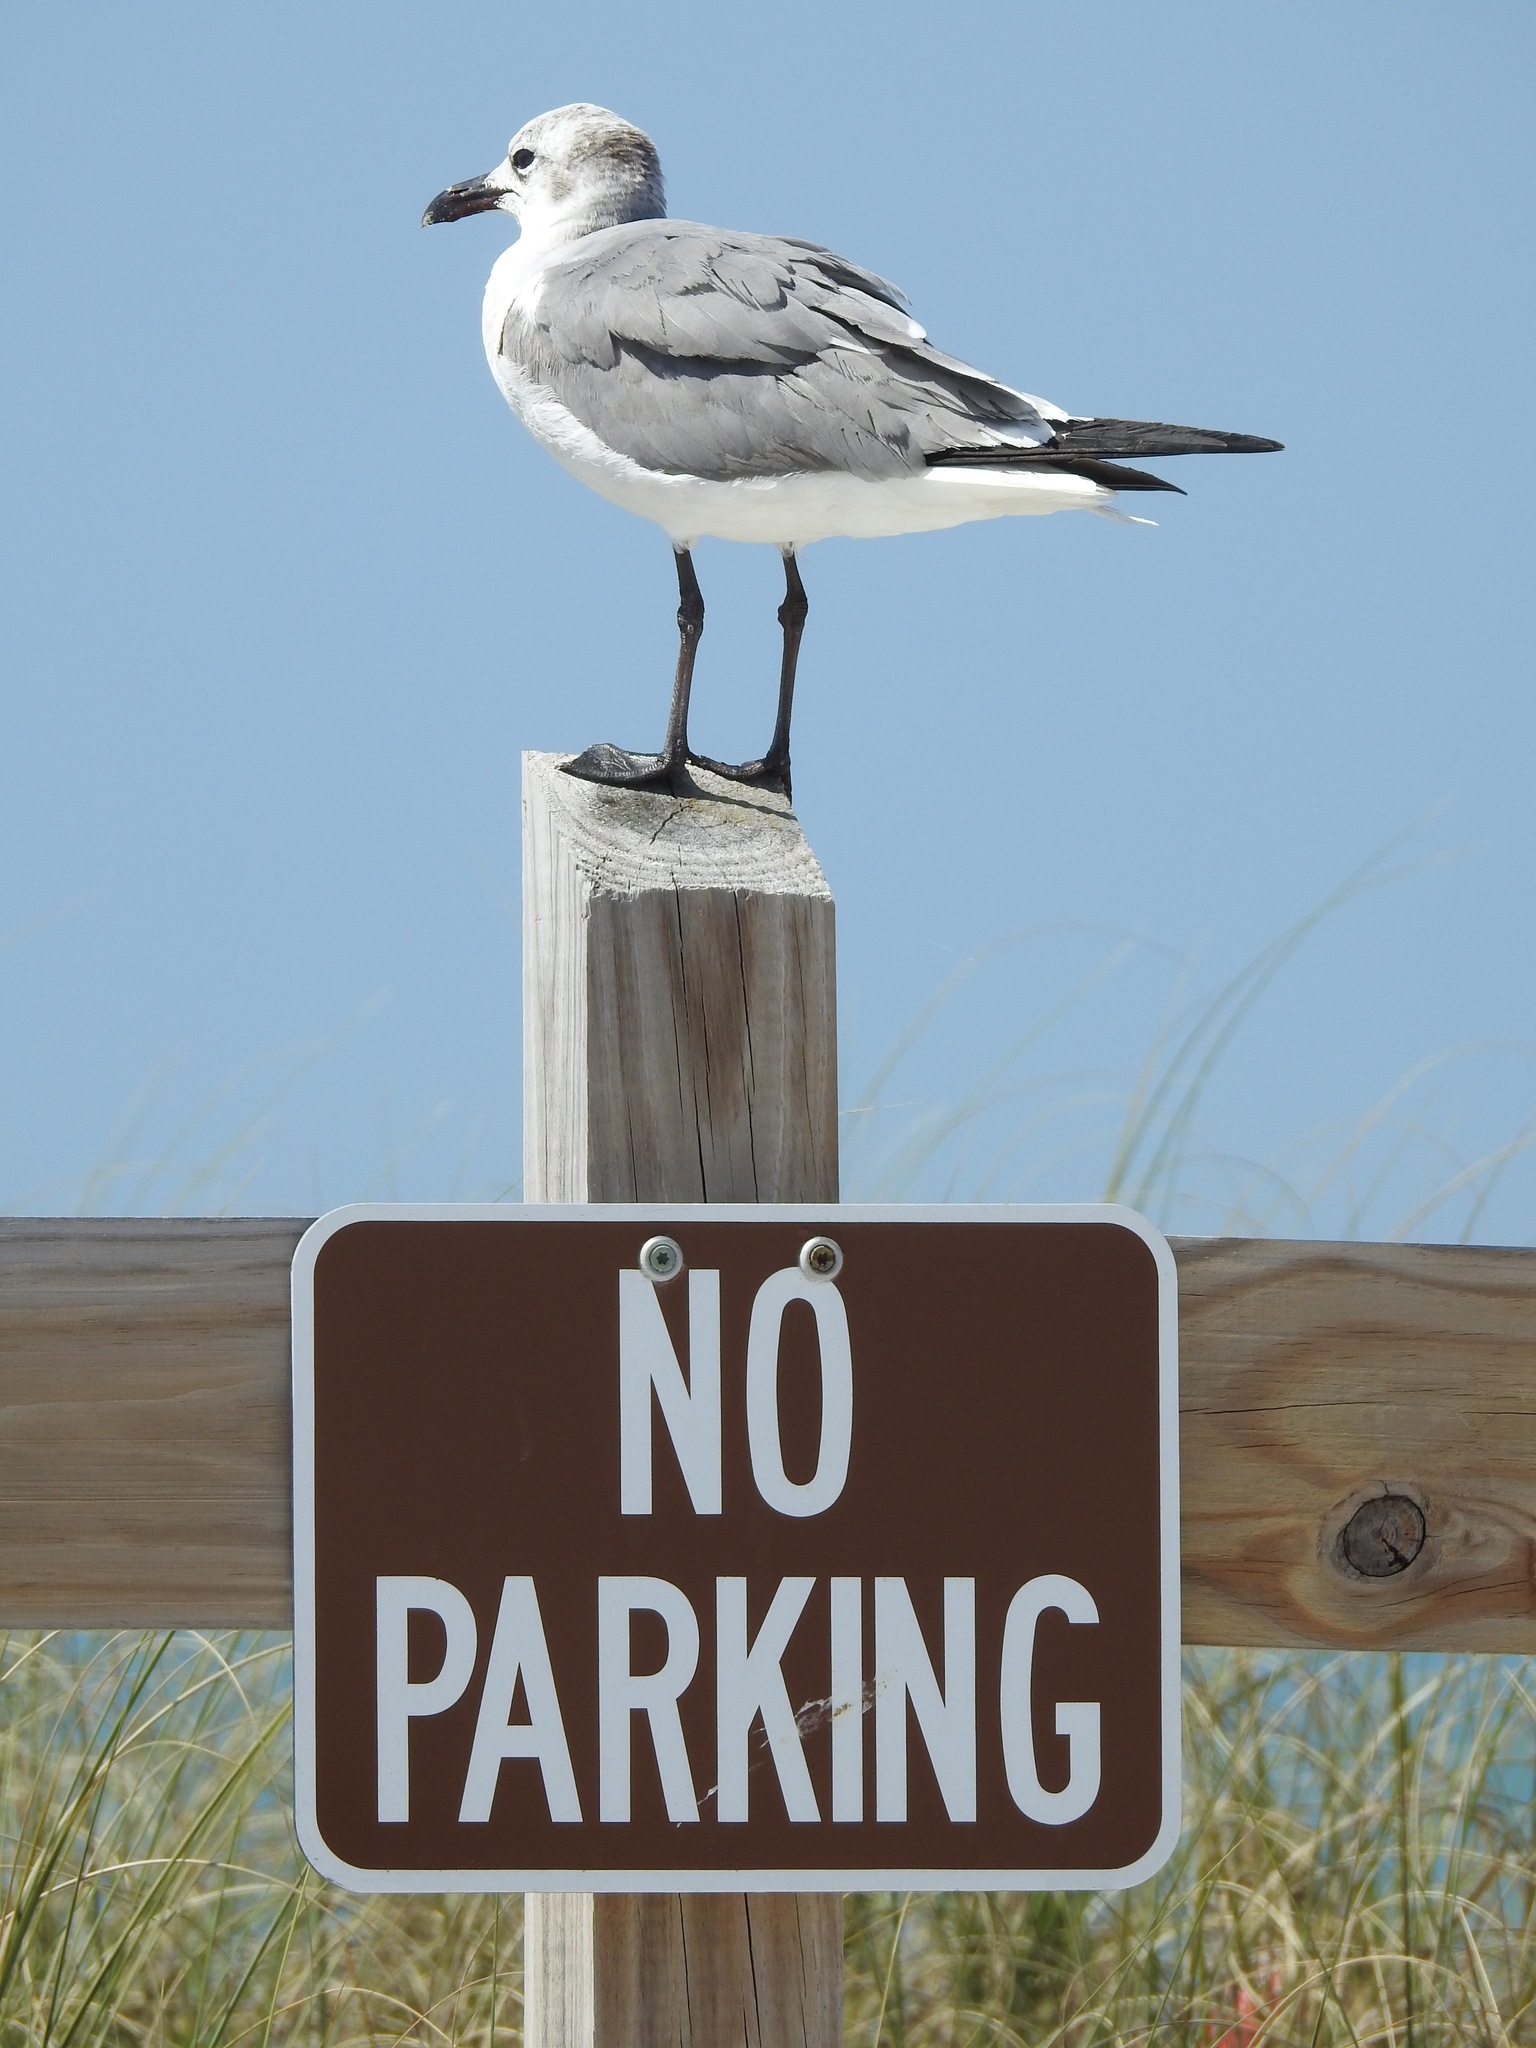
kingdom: Animalia
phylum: Chordata
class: Aves
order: Charadriiformes
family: Laridae
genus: Leucophaeus
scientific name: Leucophaeus atricilla
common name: Laughing gull
